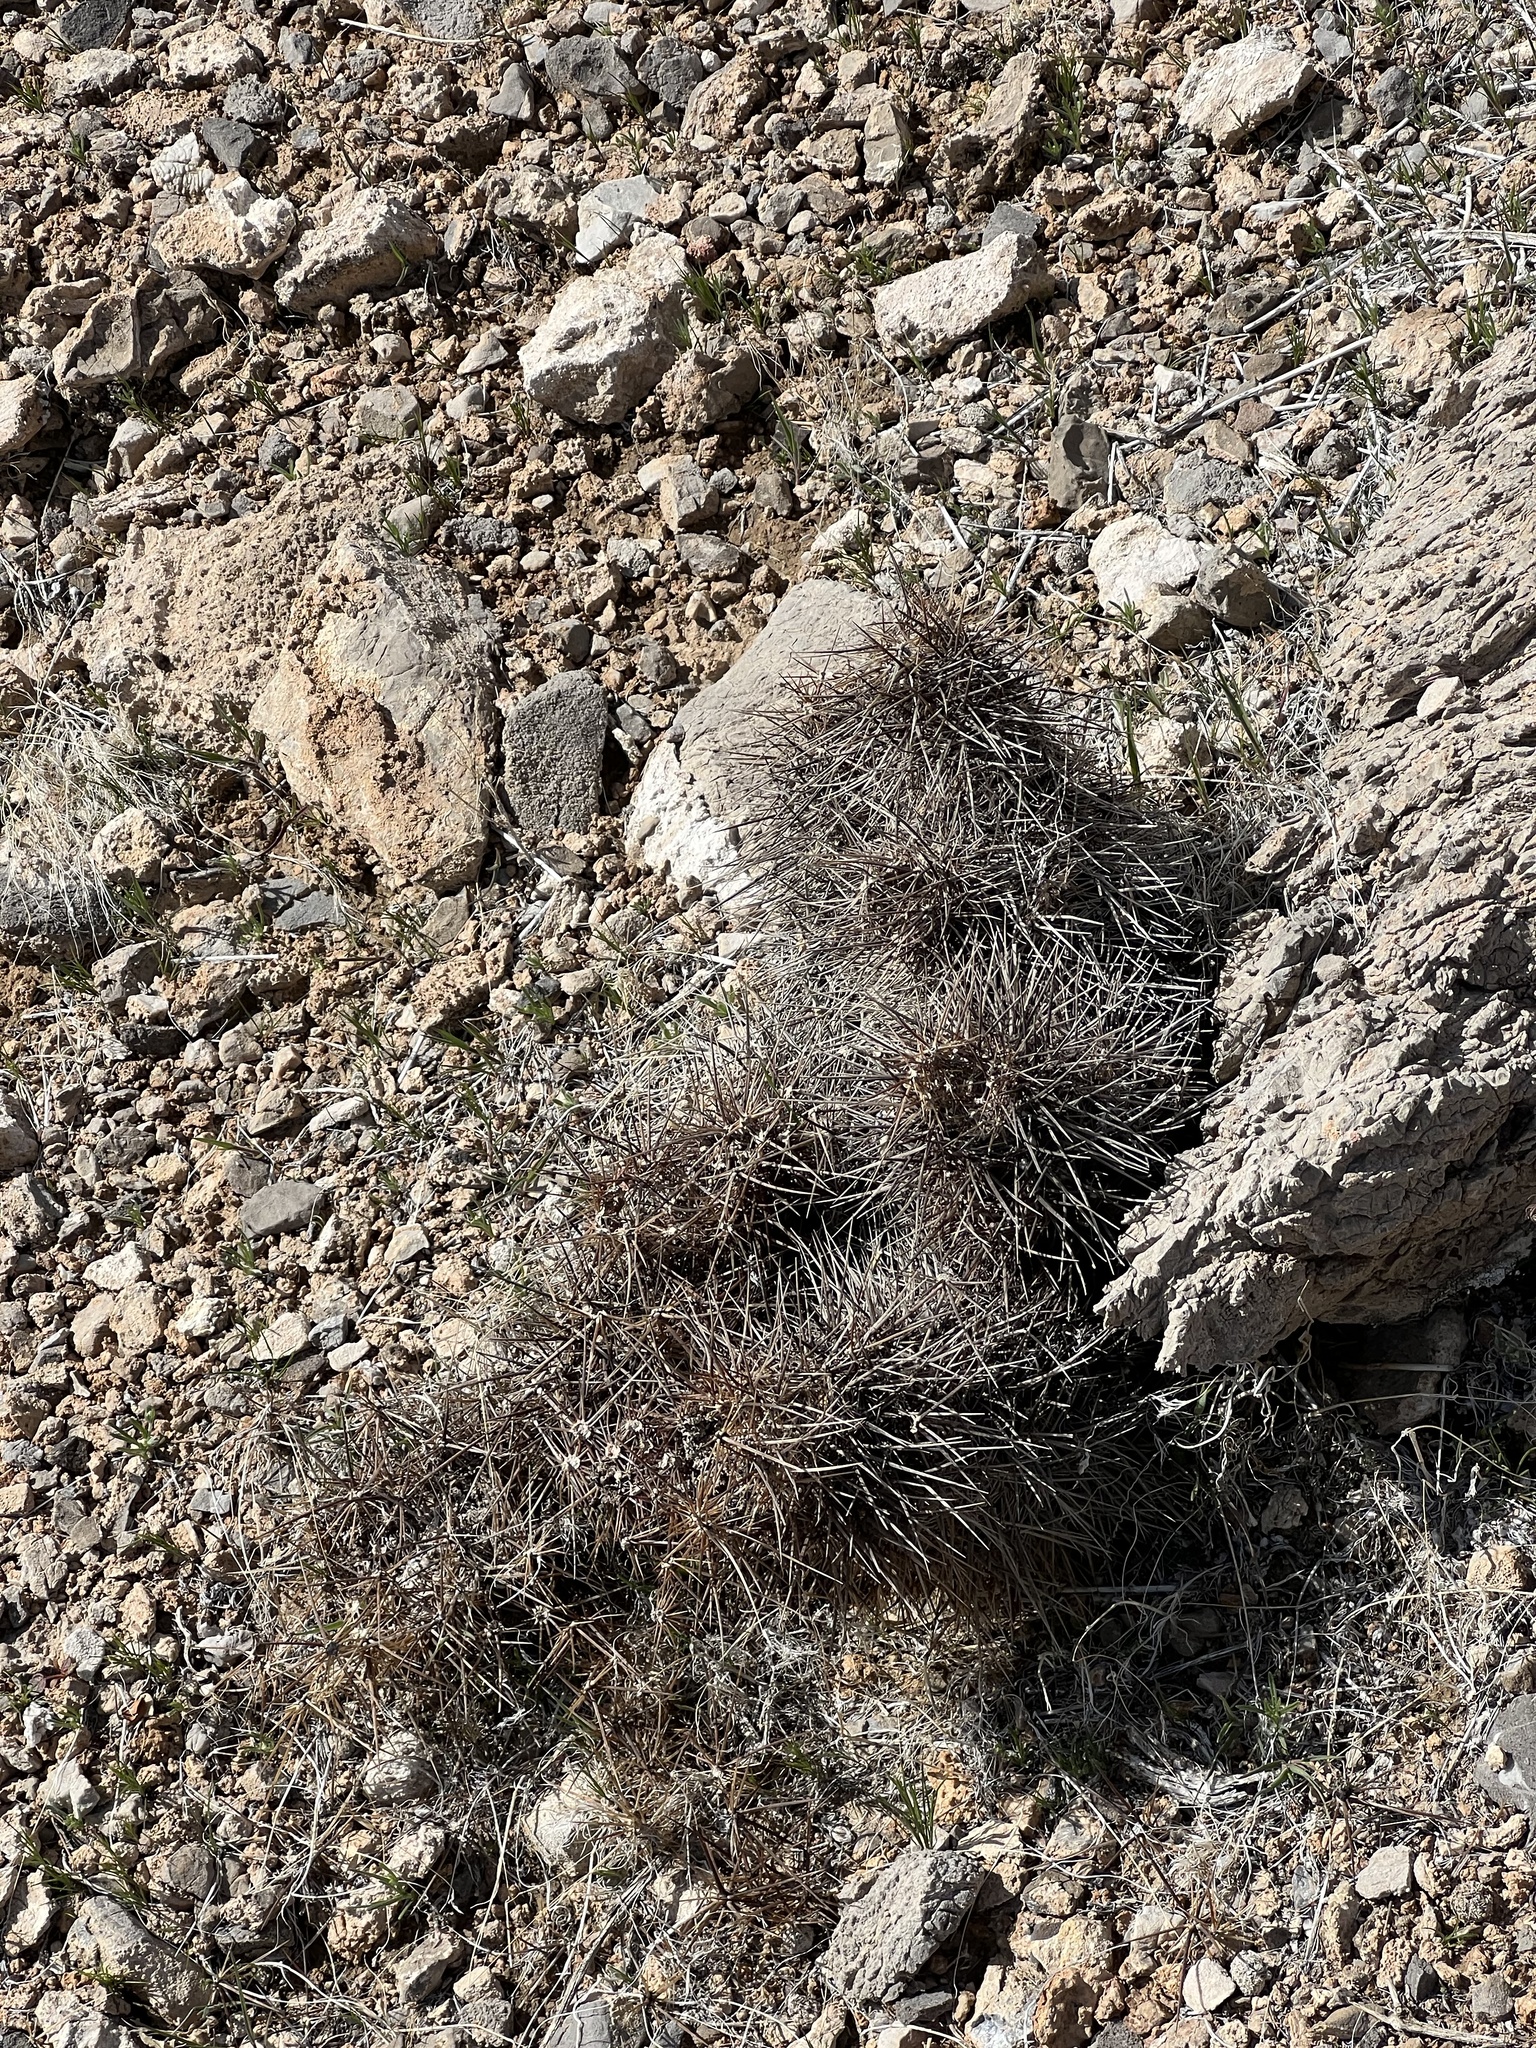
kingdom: Plantae
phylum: Tracheophyta
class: Magnoliopsida
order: Caryophyllales
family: Cactaceae
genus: Echinocereus
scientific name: Echinocereus engelmannii
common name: Engelmann's hedgehog cactus
